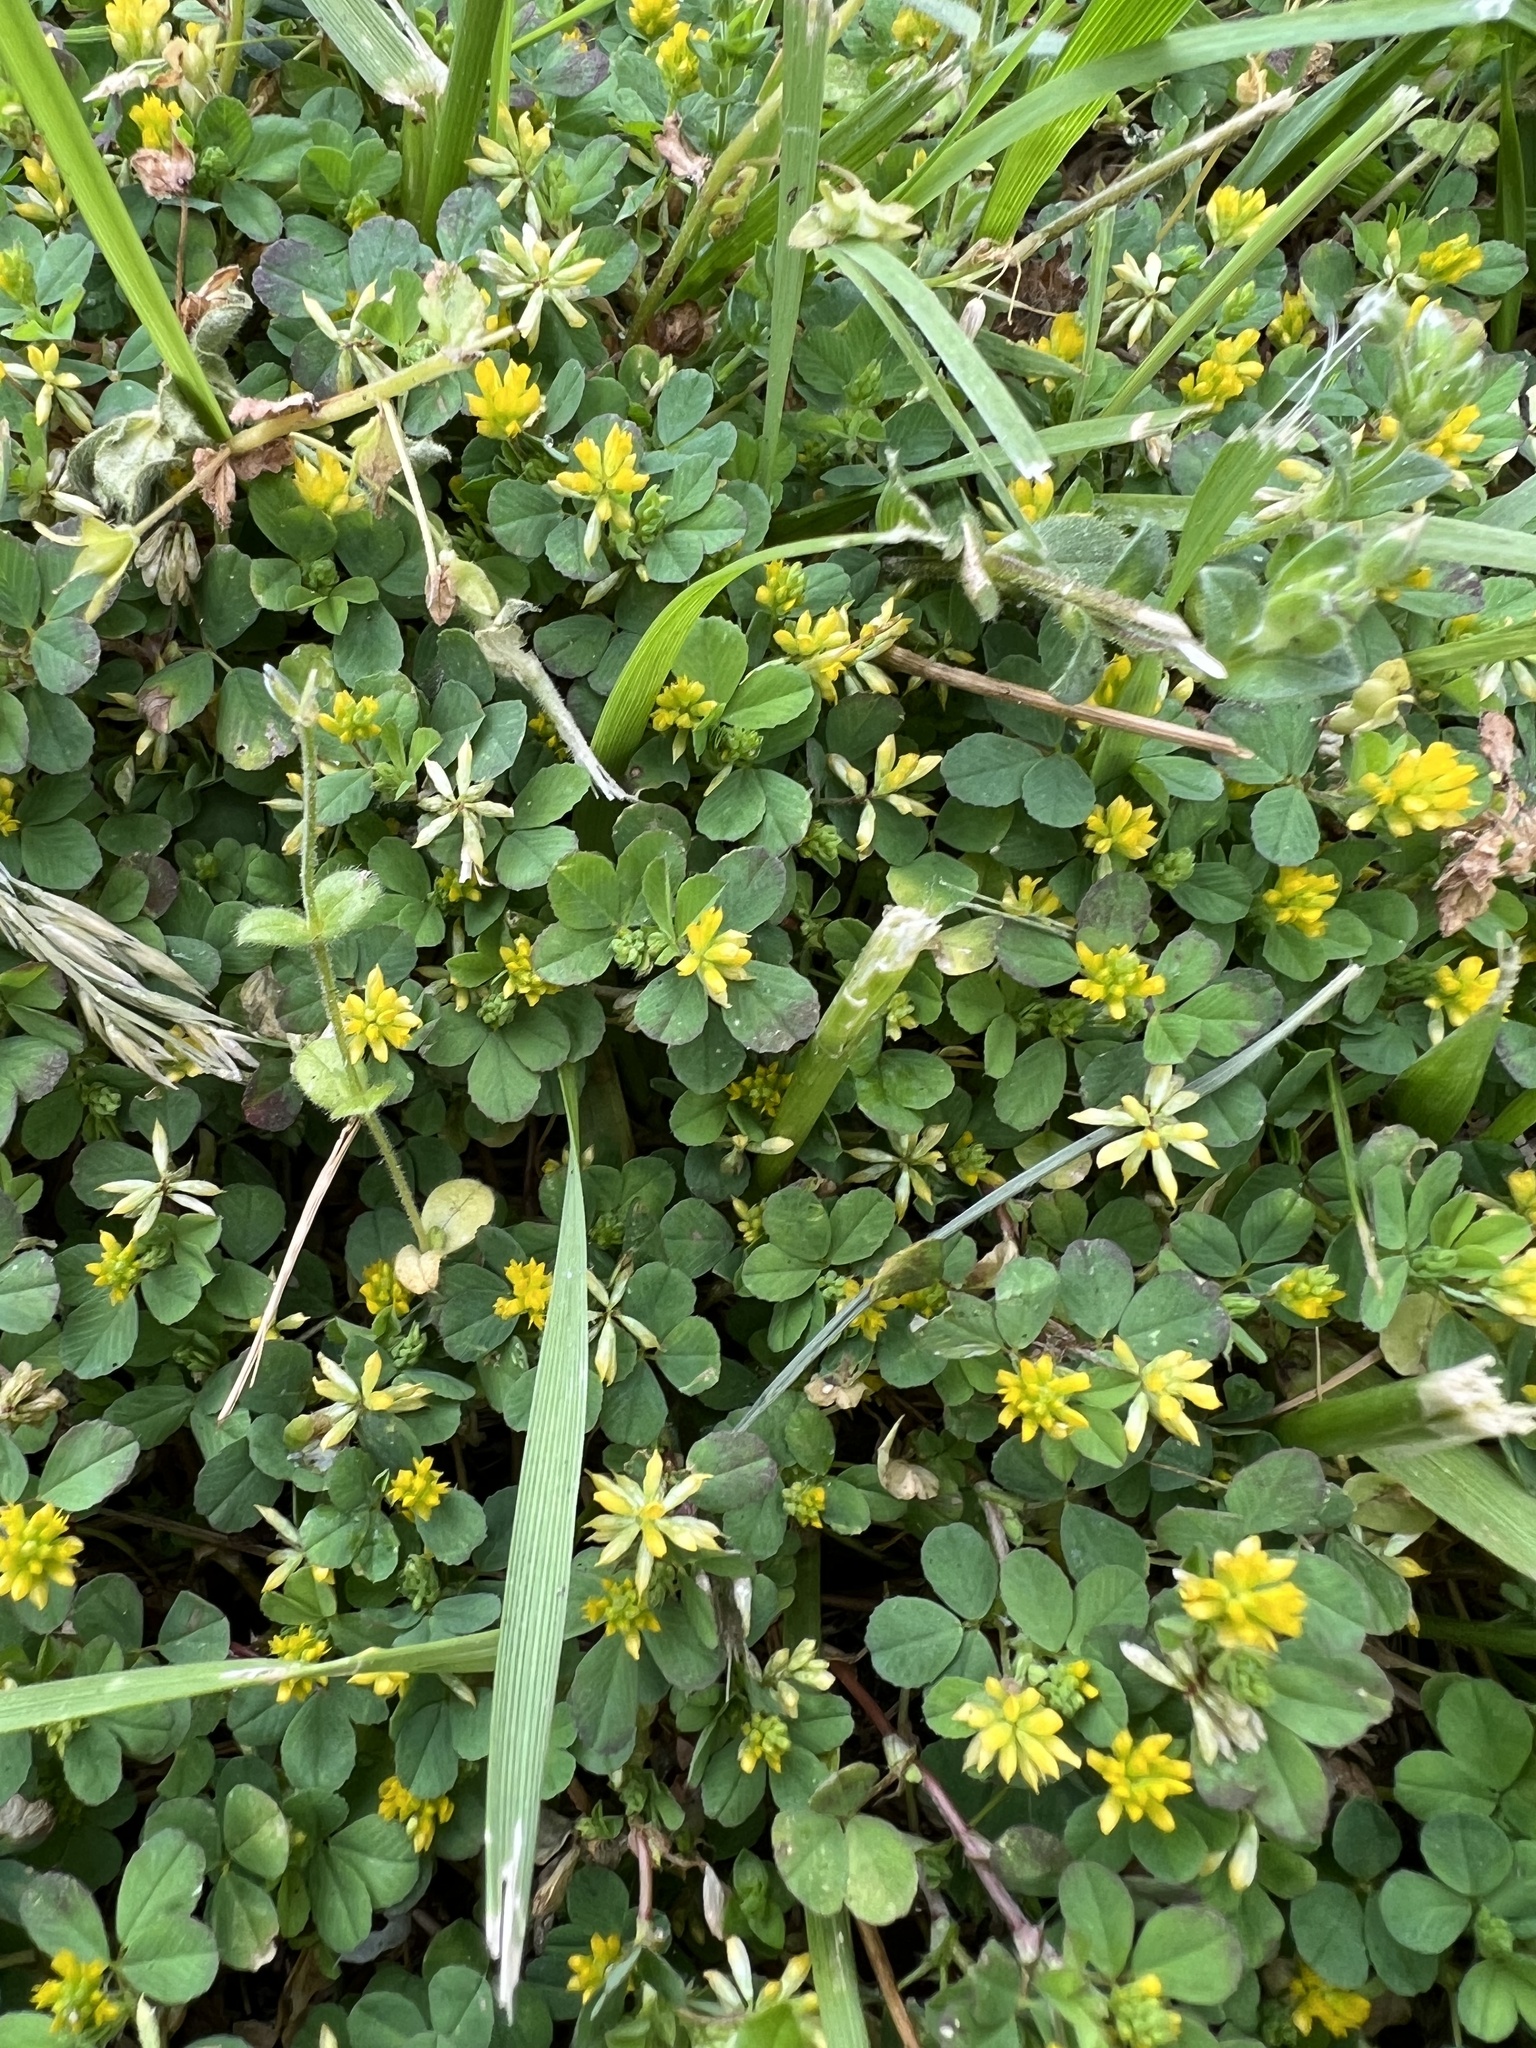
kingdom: Plantae
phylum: Tracheophyta
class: Magnoliopsida
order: Fabales
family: Fabaceae
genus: Trifolium
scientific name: Trifolium dubium
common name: Suckling clover
